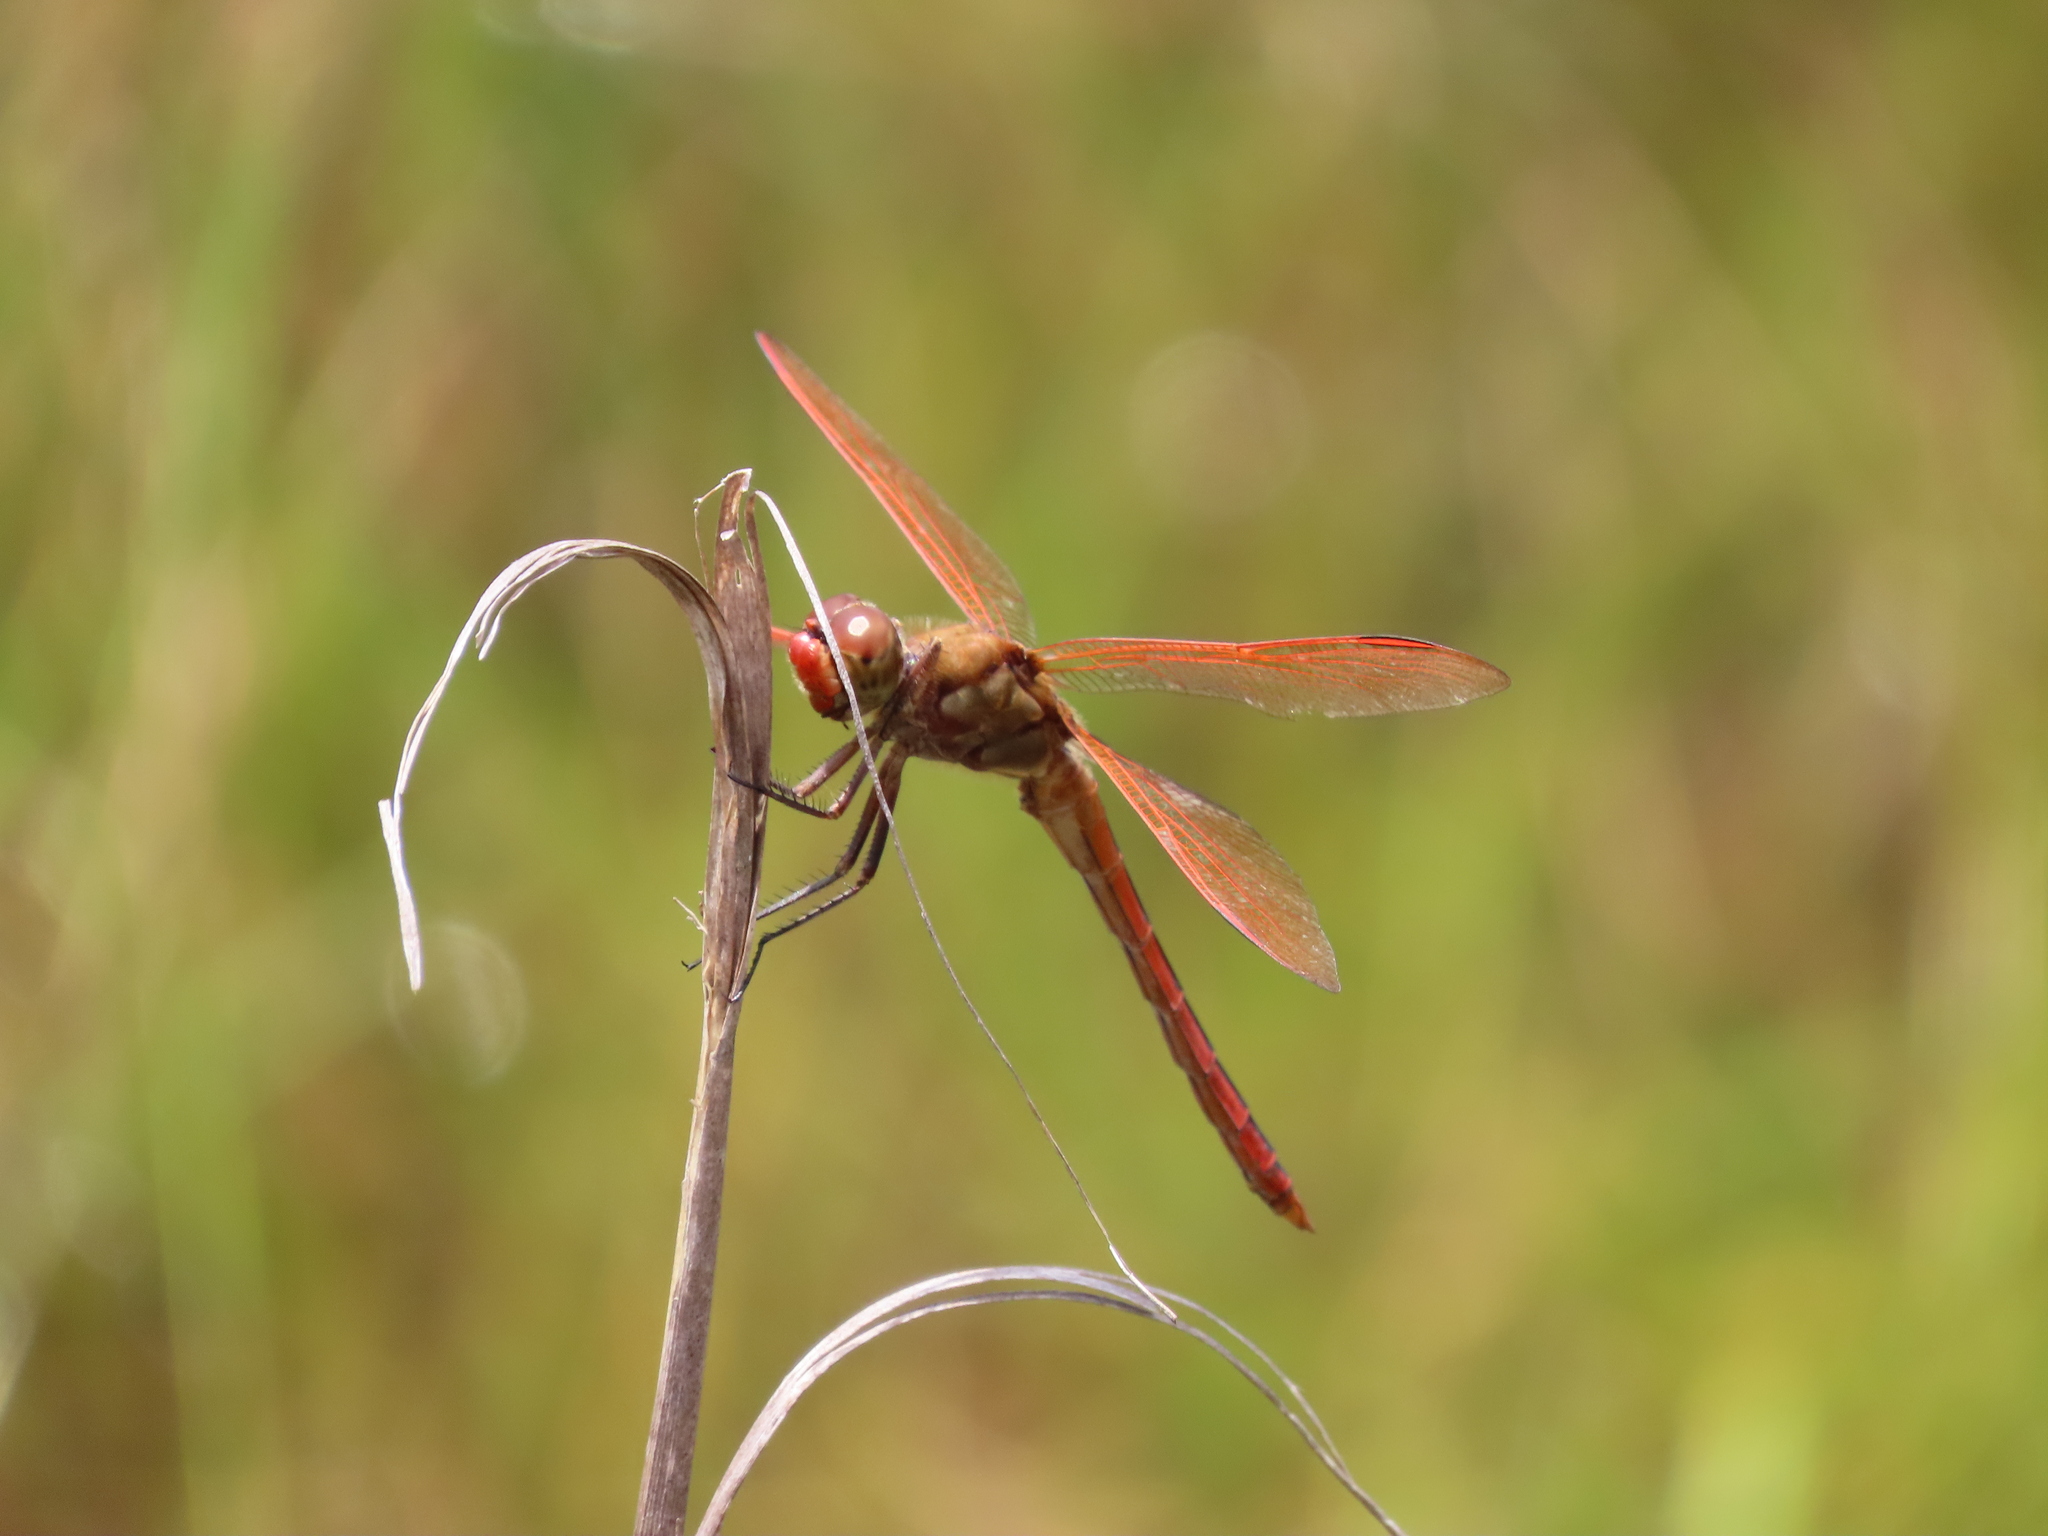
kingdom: Animalia
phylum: Arthropoda
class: Insecta
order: Odonata
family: Libellulidae
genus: Libellula
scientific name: Libellula auripennis
